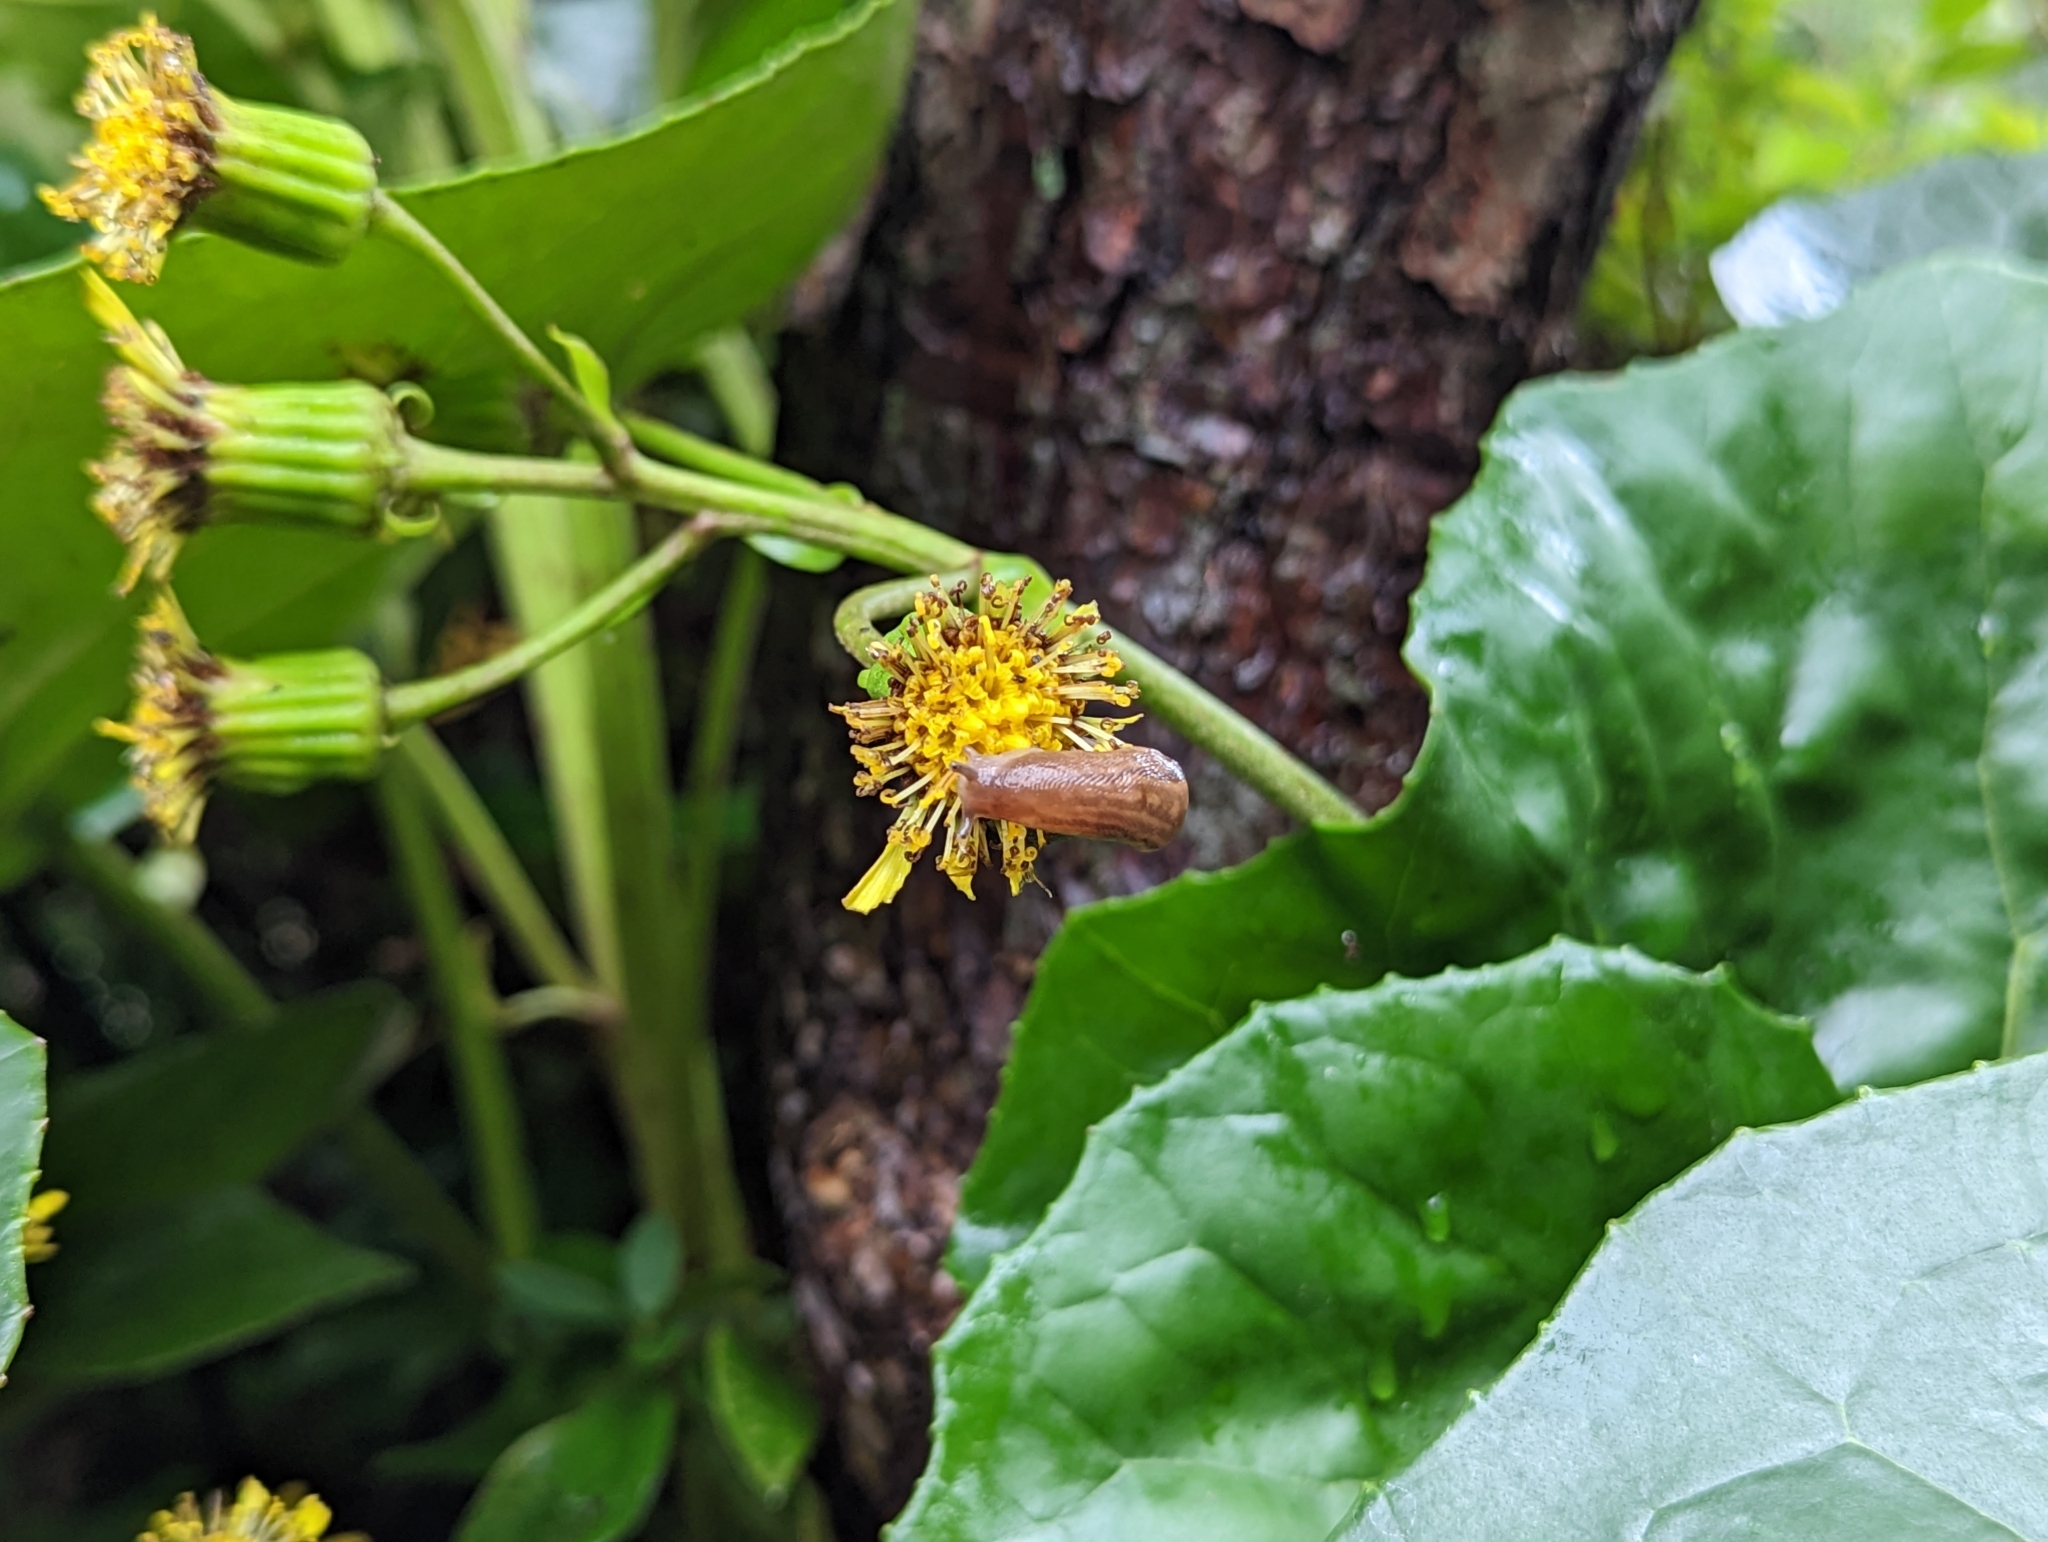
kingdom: Animalia
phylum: Mollusca
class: Gastropoda
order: Stylommatophora
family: Limacidae
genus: Ambigolimax
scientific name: Ambigolimax valentianus
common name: Greenhouse slug
